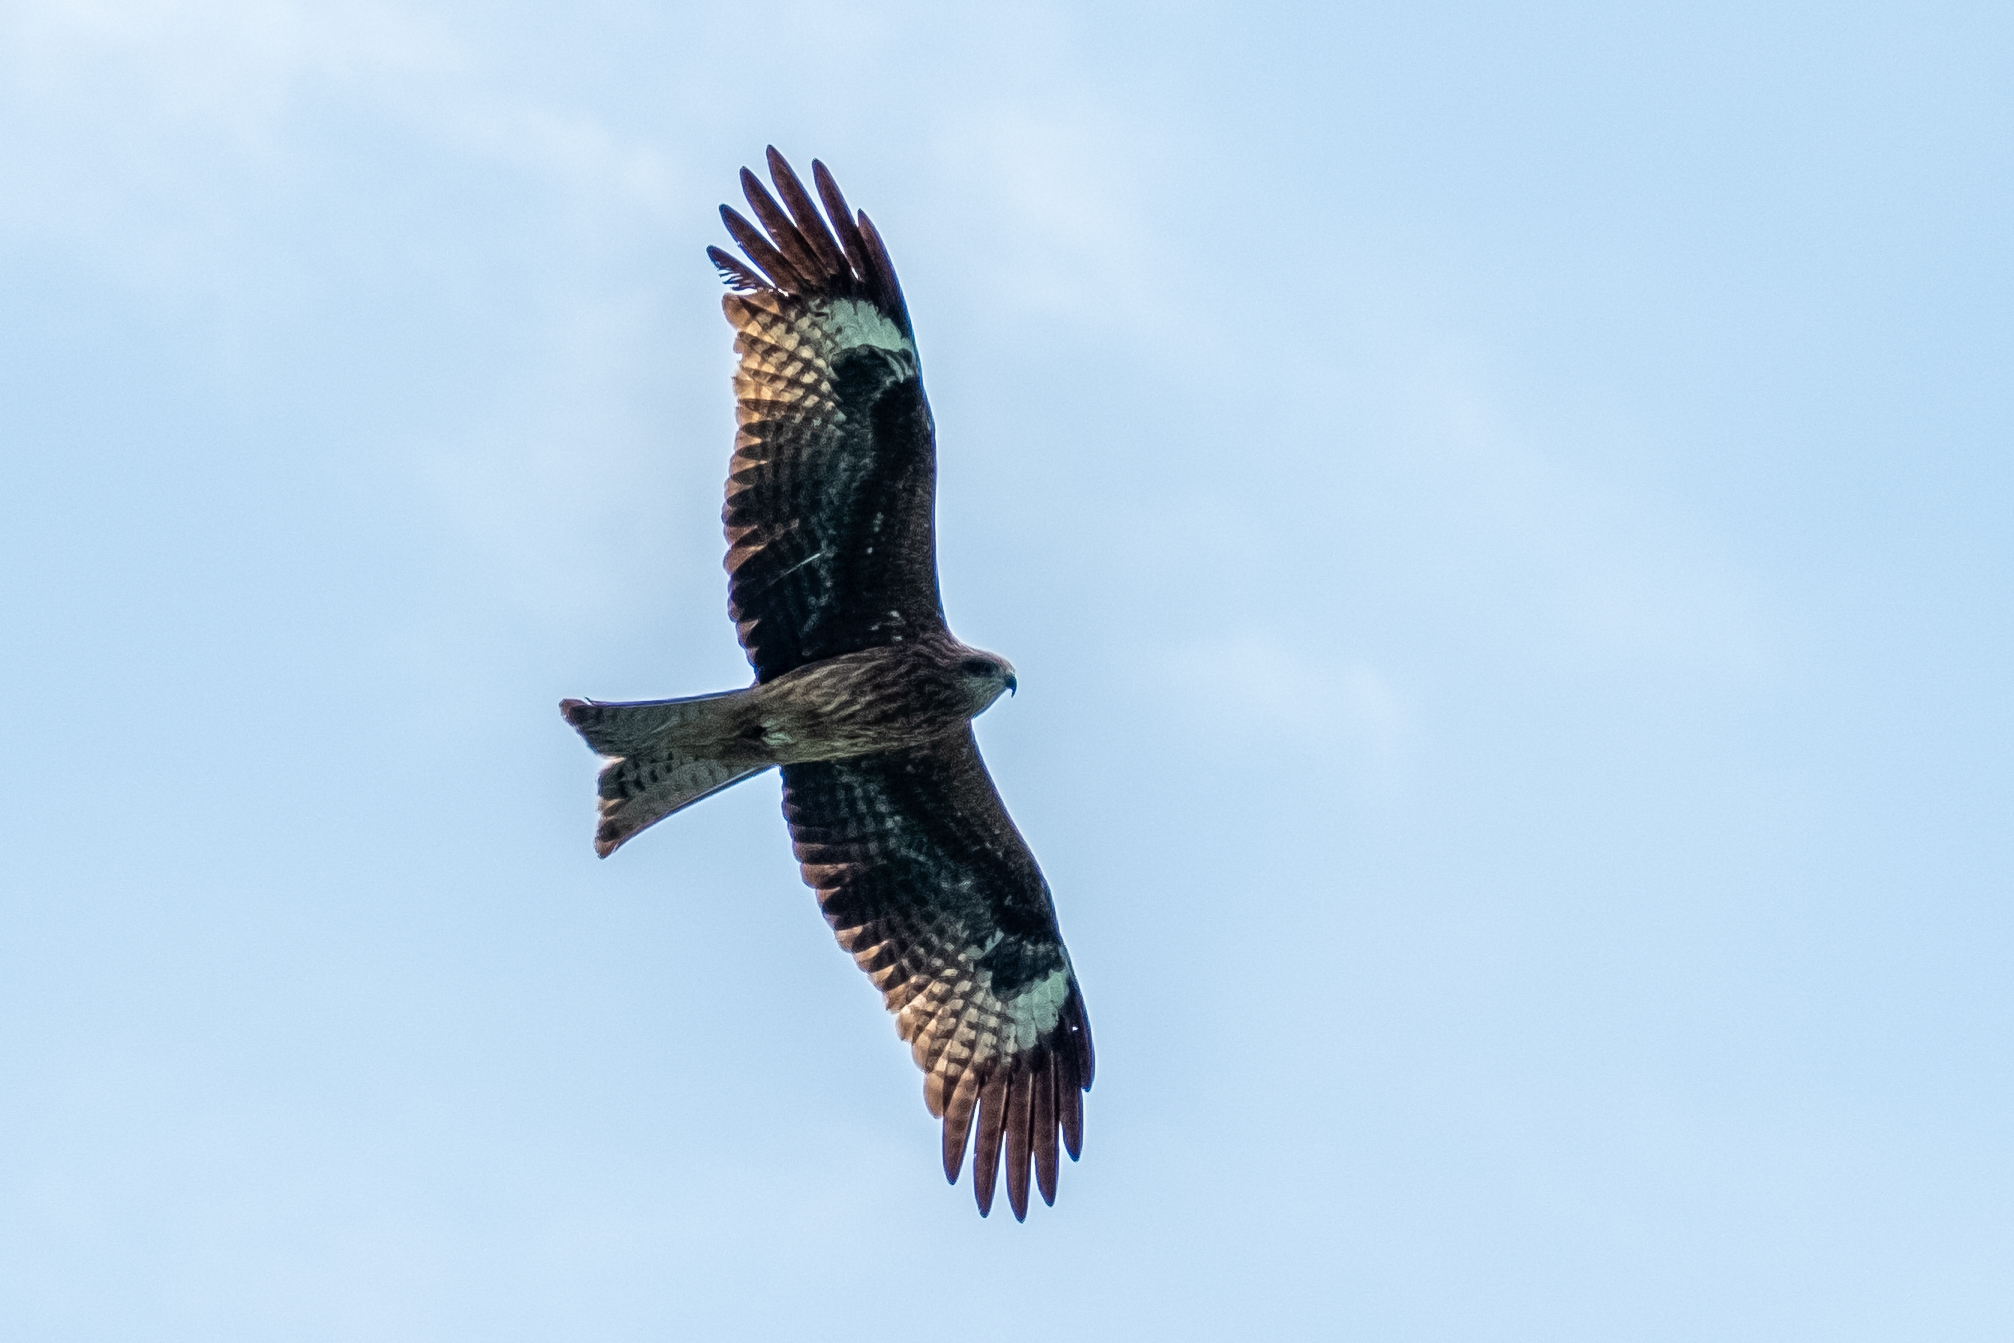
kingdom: Animalia
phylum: Chordata
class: Aves
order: Accipitriformes
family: Accipitridae
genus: Milvus
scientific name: Milvus migrans
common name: Black kite
